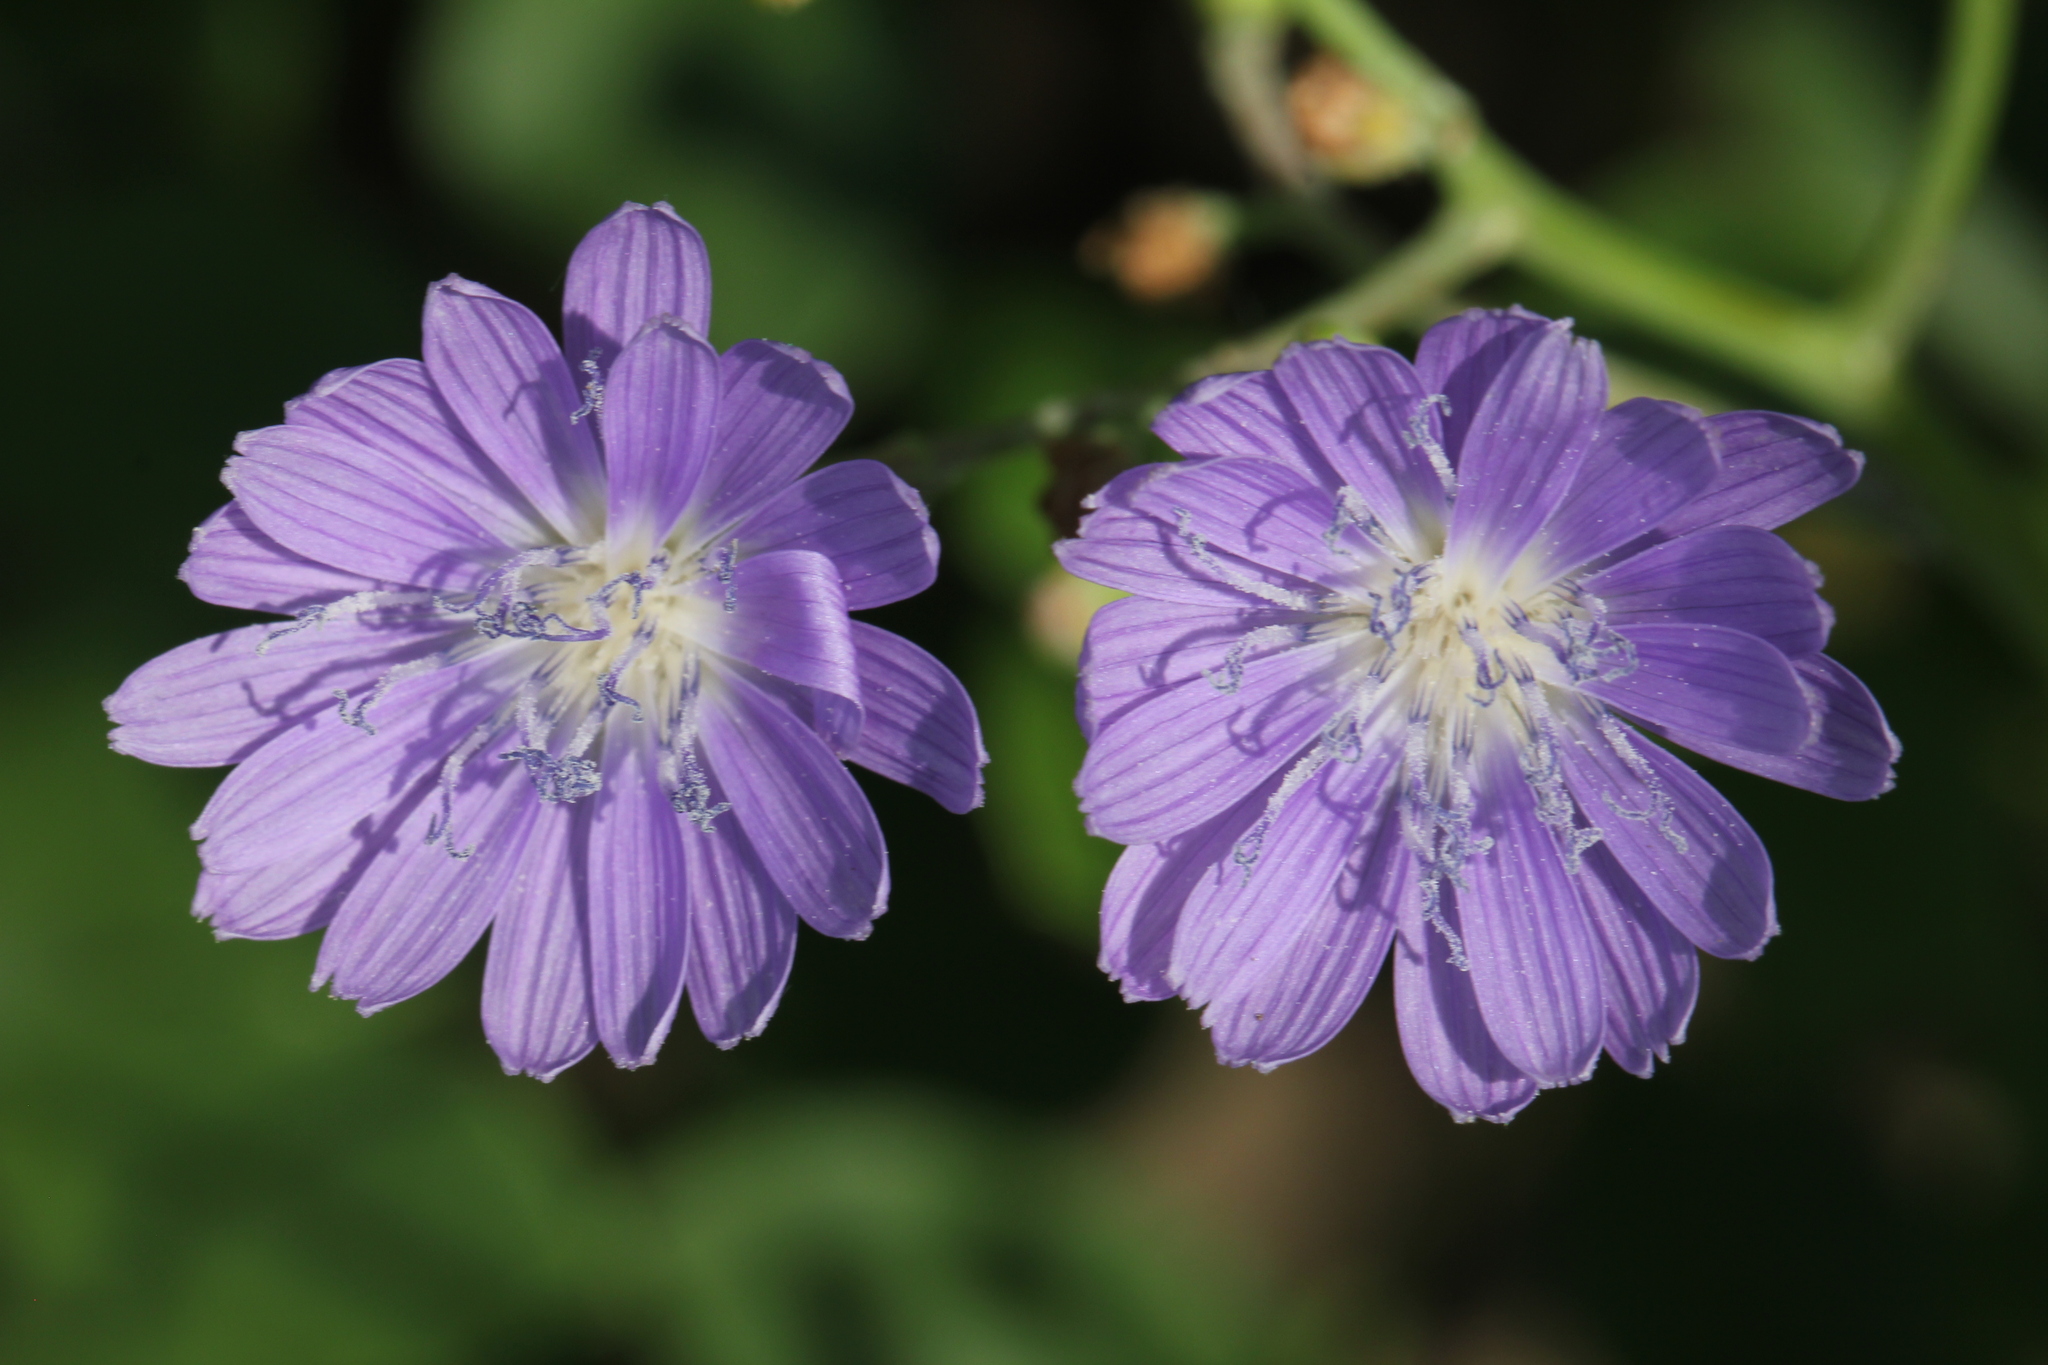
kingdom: Plantae
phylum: Tracheophyta
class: Magnoliopsida
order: Asterales
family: Asteraceae
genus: Lactuca
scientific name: Lactuca tatarica
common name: Blue lettuce
